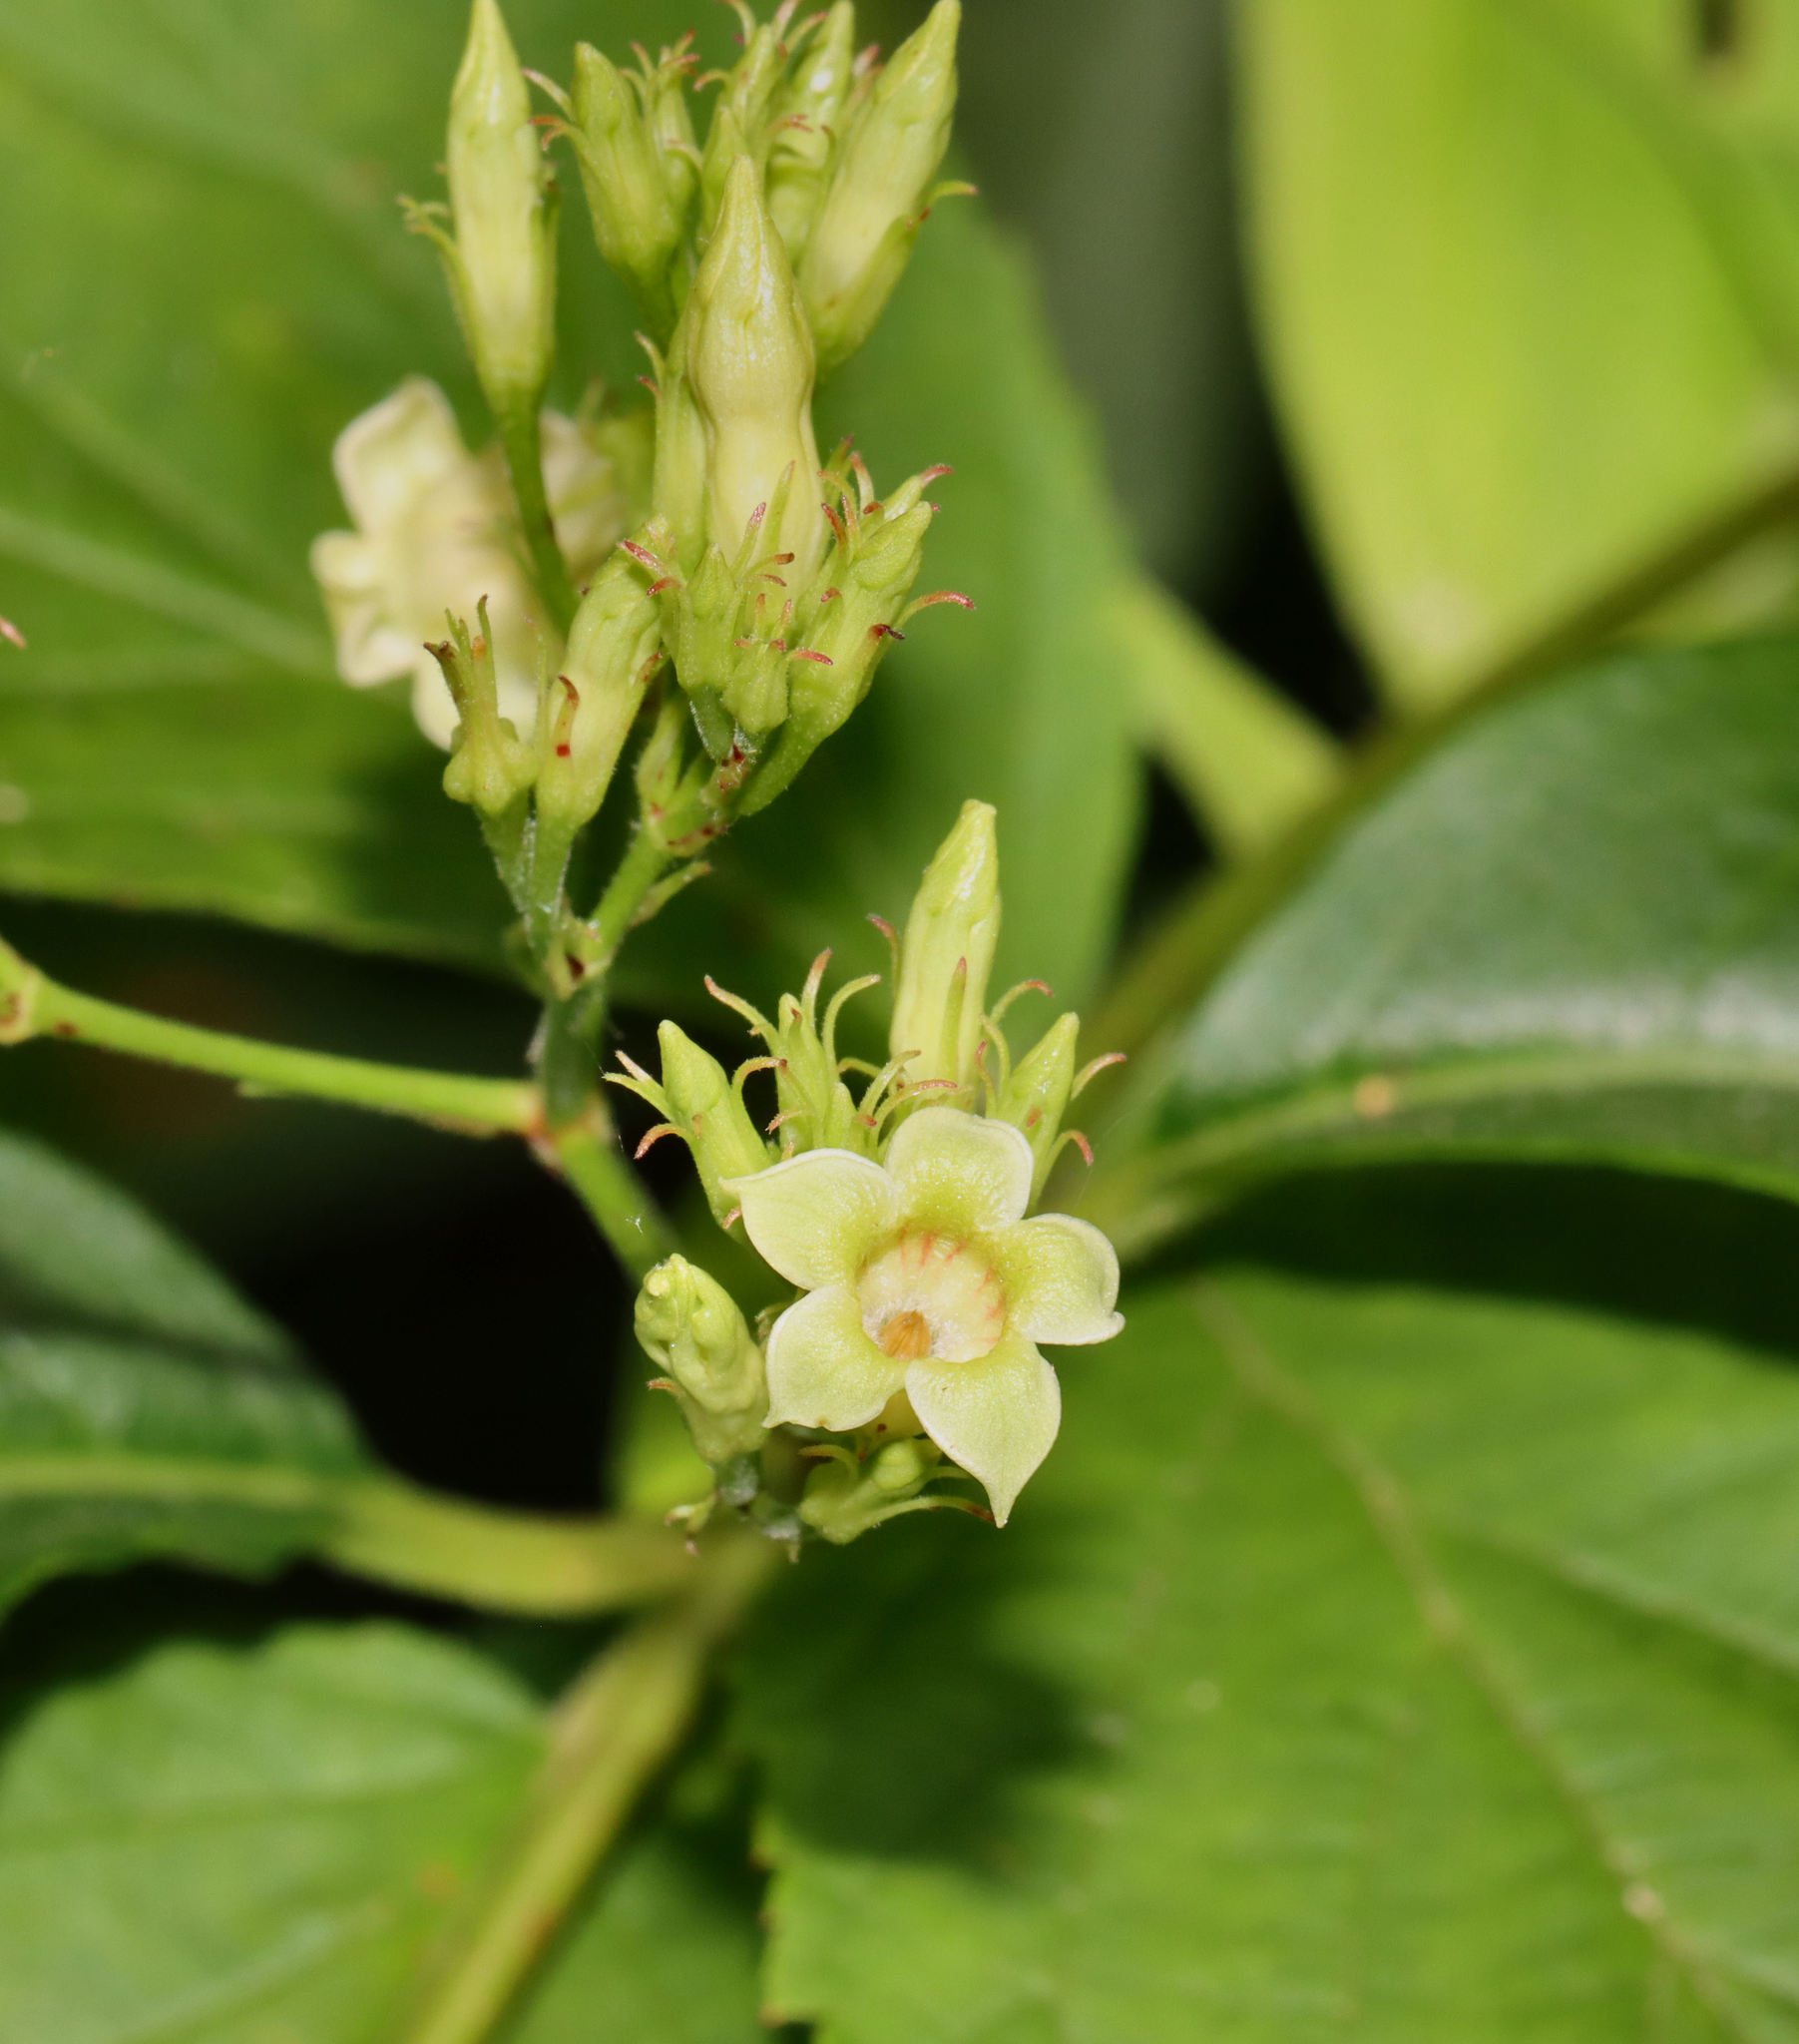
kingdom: Plantae
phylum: Tracheophyta
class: Magnoliopsida
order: Gentianales
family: Apocynaceae
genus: Thyrsanthella
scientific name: Thyrsanthella difformis
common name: Climbing dogbane
